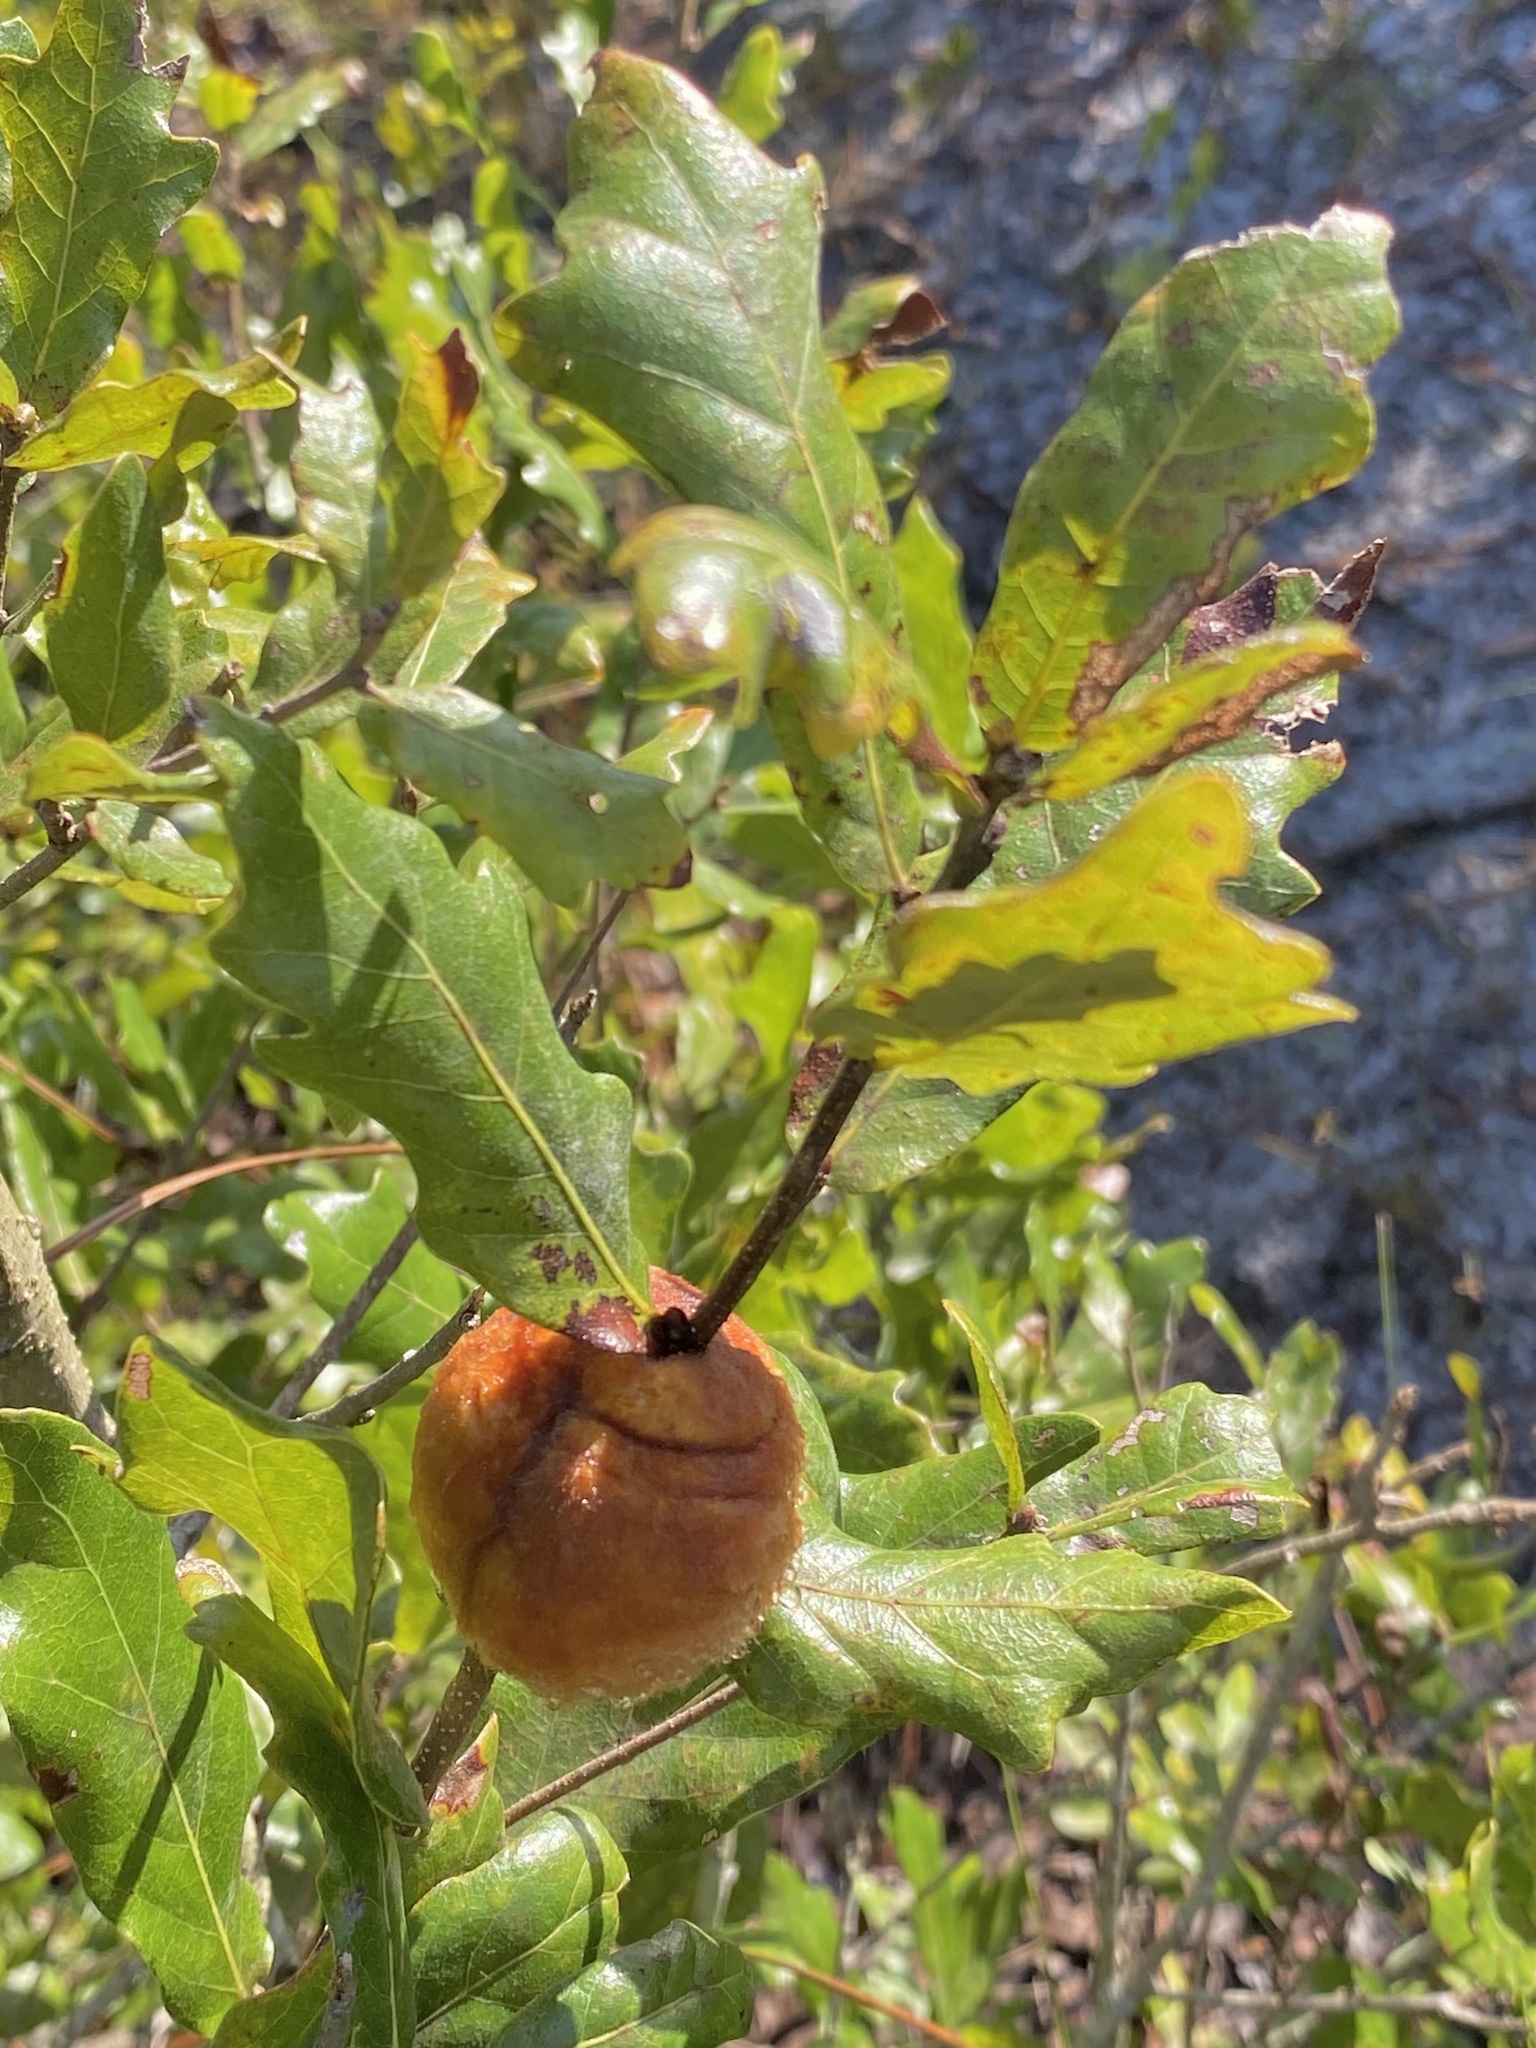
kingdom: Animalia
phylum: Arthropoda
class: Insecta
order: Hymenoptera
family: Cynipidae
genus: Disholcaspis
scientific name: Disholcaspis
